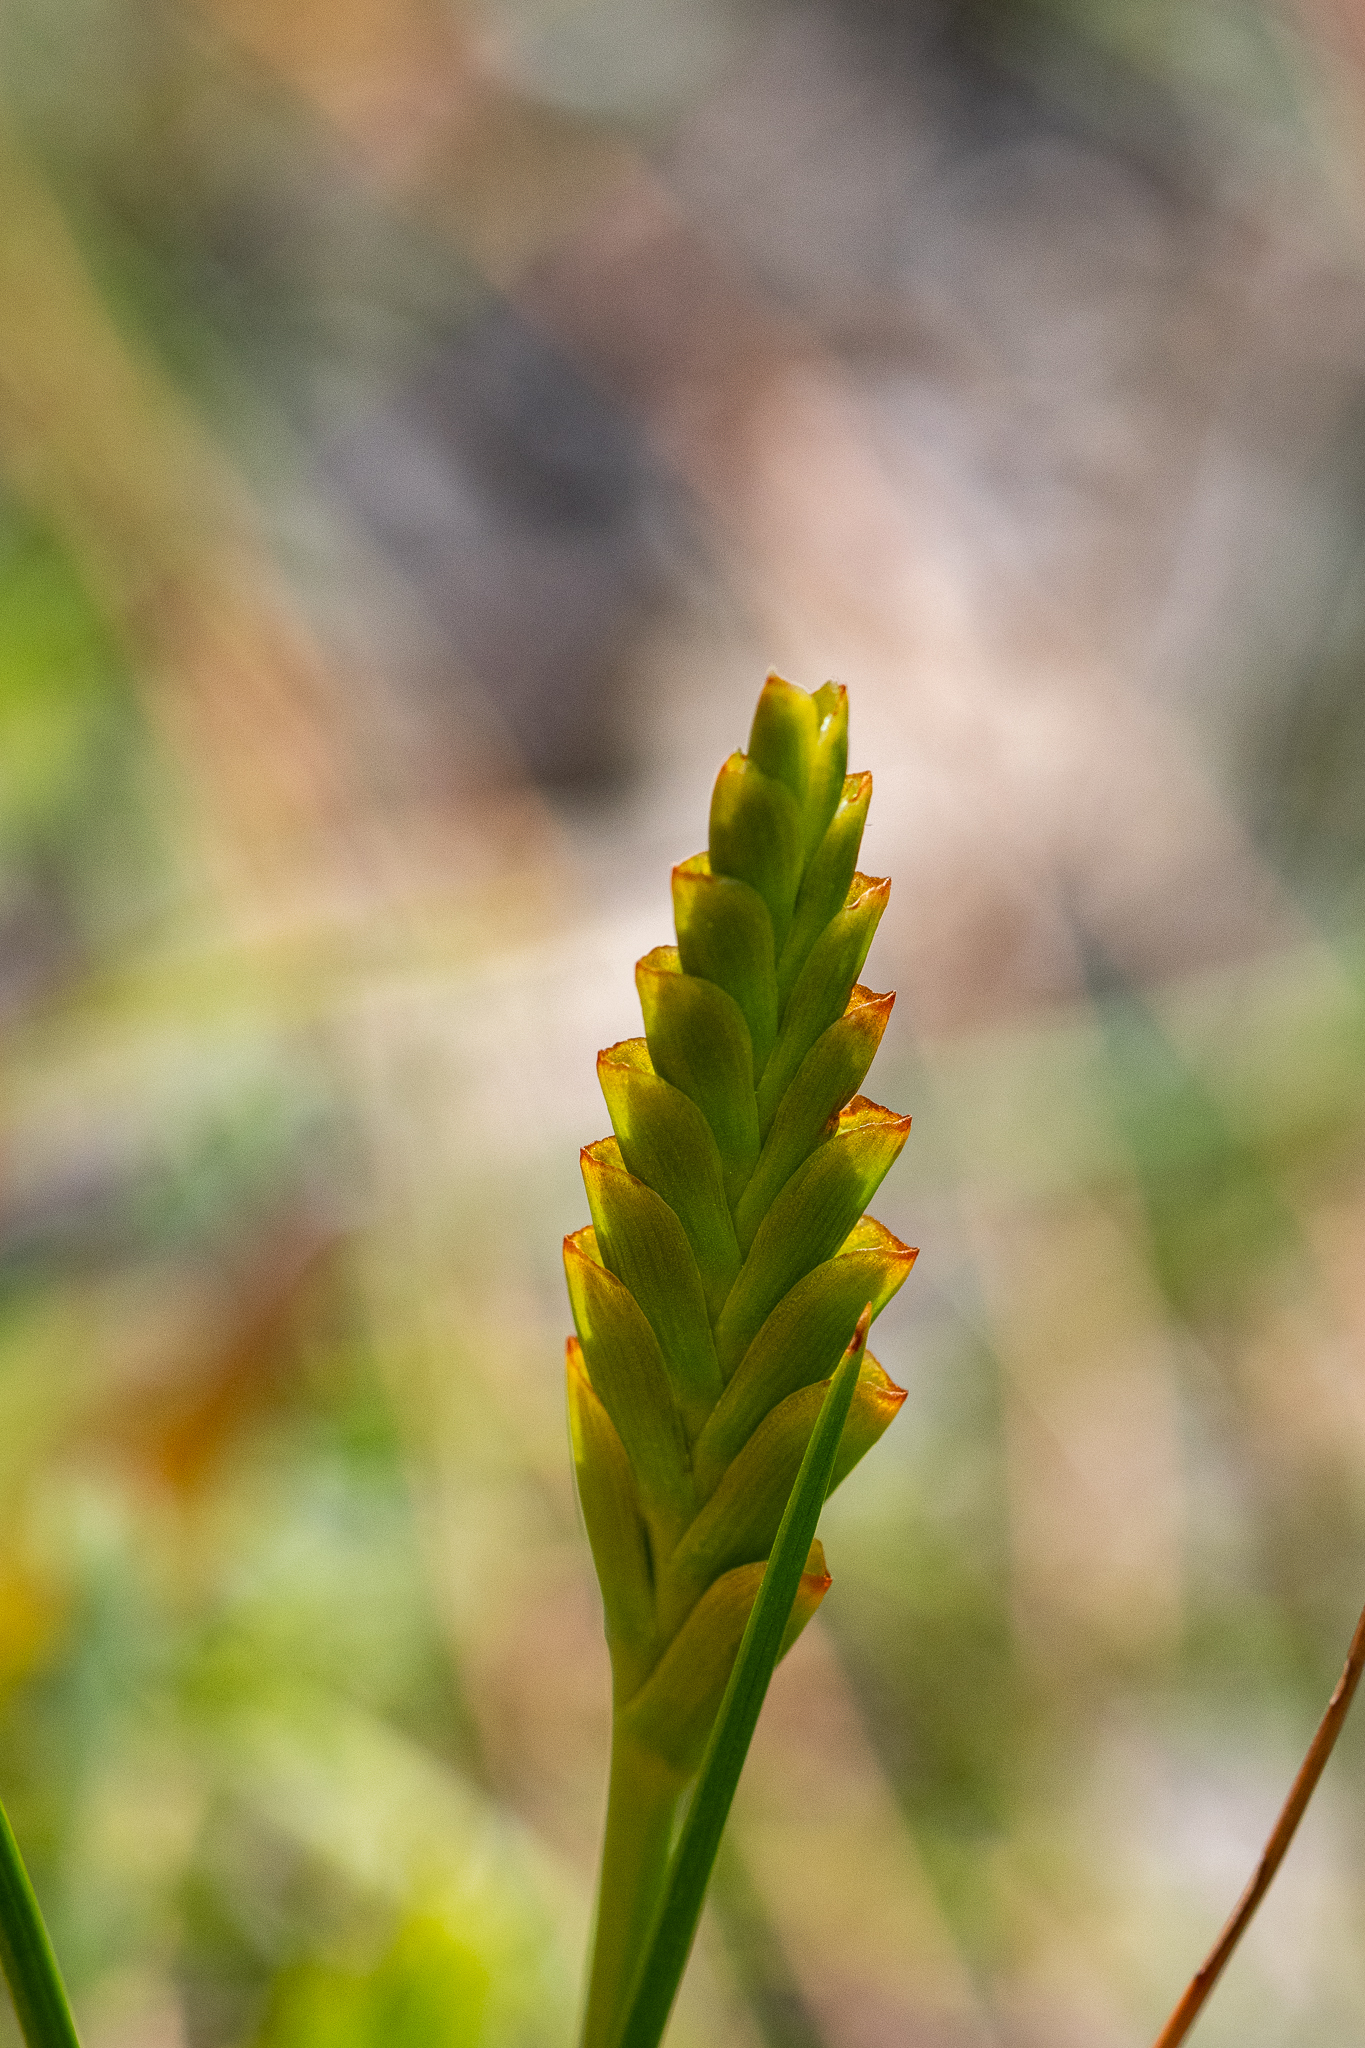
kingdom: Plantae
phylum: Tracheophyta
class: Liliopsida
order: Asparagales
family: Iridaceae
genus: Thereianthus
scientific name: Thereianthus bracteolatus
